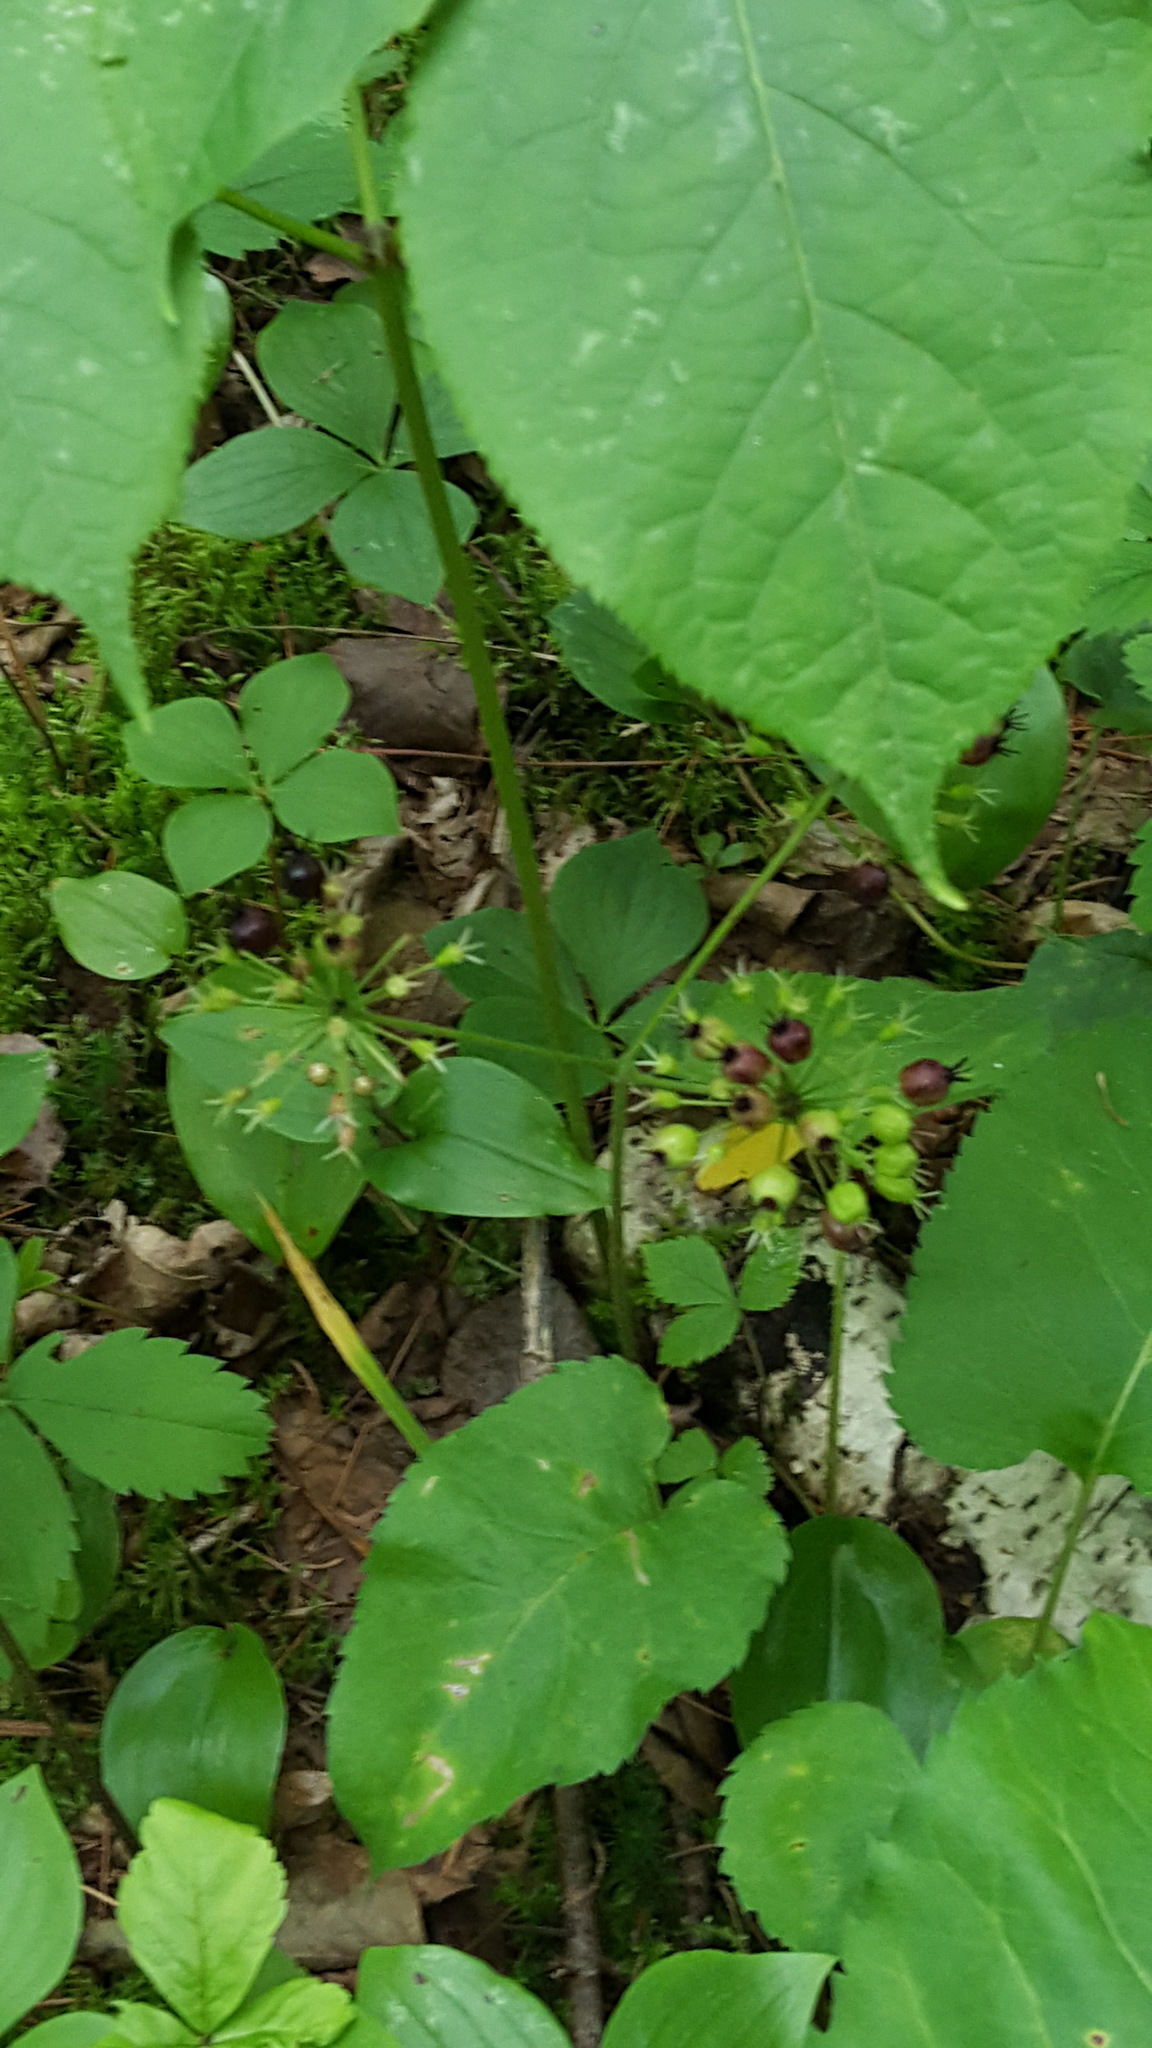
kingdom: Plantae
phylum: Tracheophyta
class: Magnoliopsida
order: Apiales
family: Araliaceae
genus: Aralia
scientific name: Aralia nudicaulis
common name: Wild sarsaparilla
